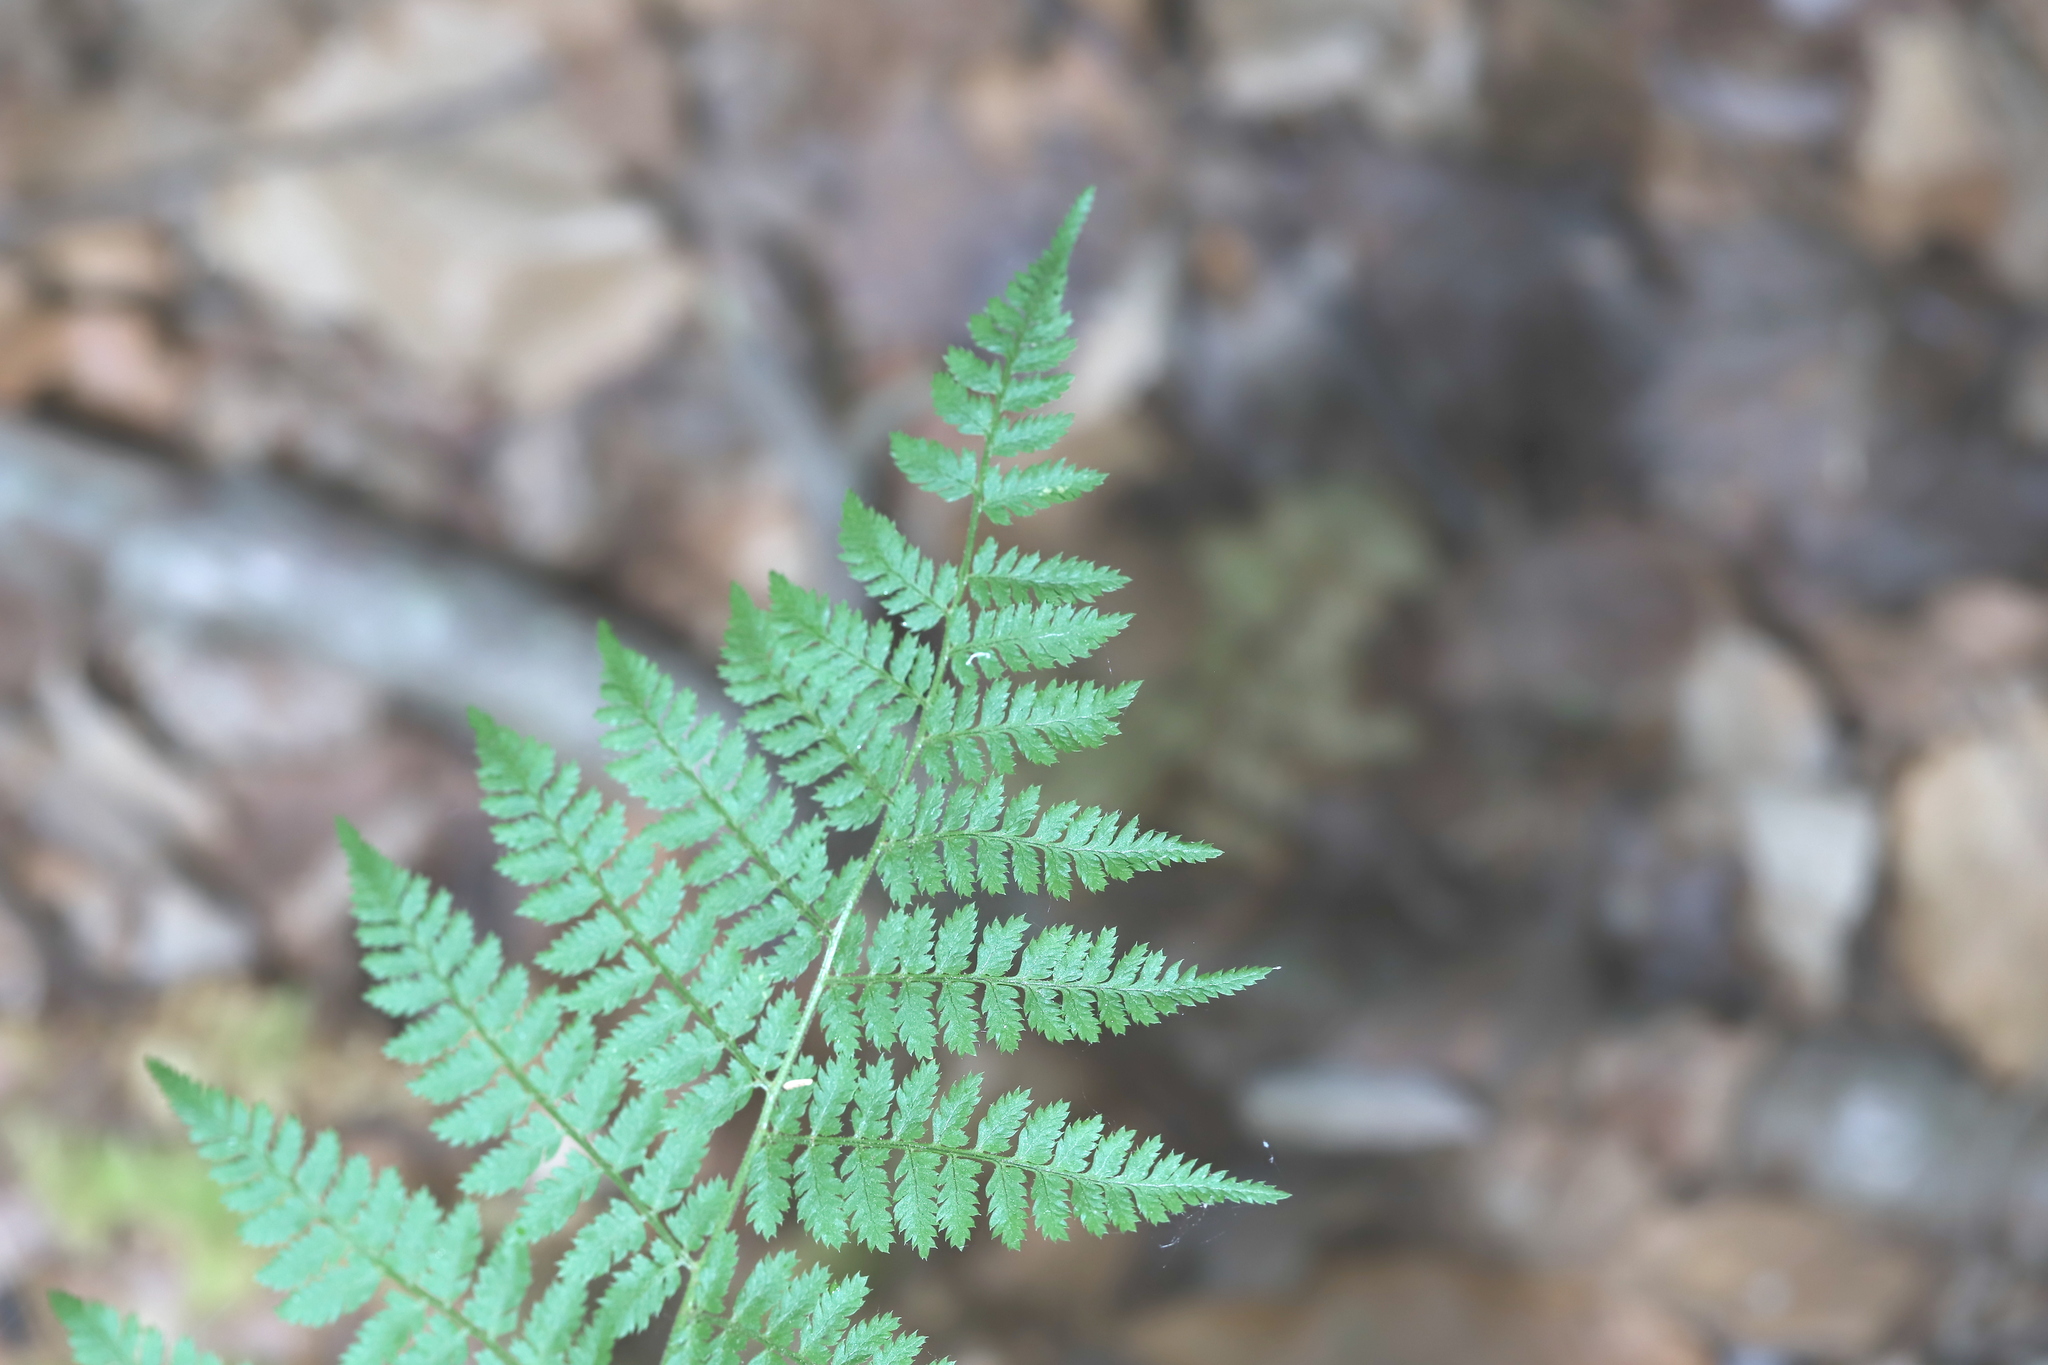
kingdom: Plantae
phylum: Tracheophyta
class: Polypodiopsida
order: Polypodiales
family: Dryopteridaceae
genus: Dryopteris
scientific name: Dryopteris intermedia
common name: Evergreen wood fern
